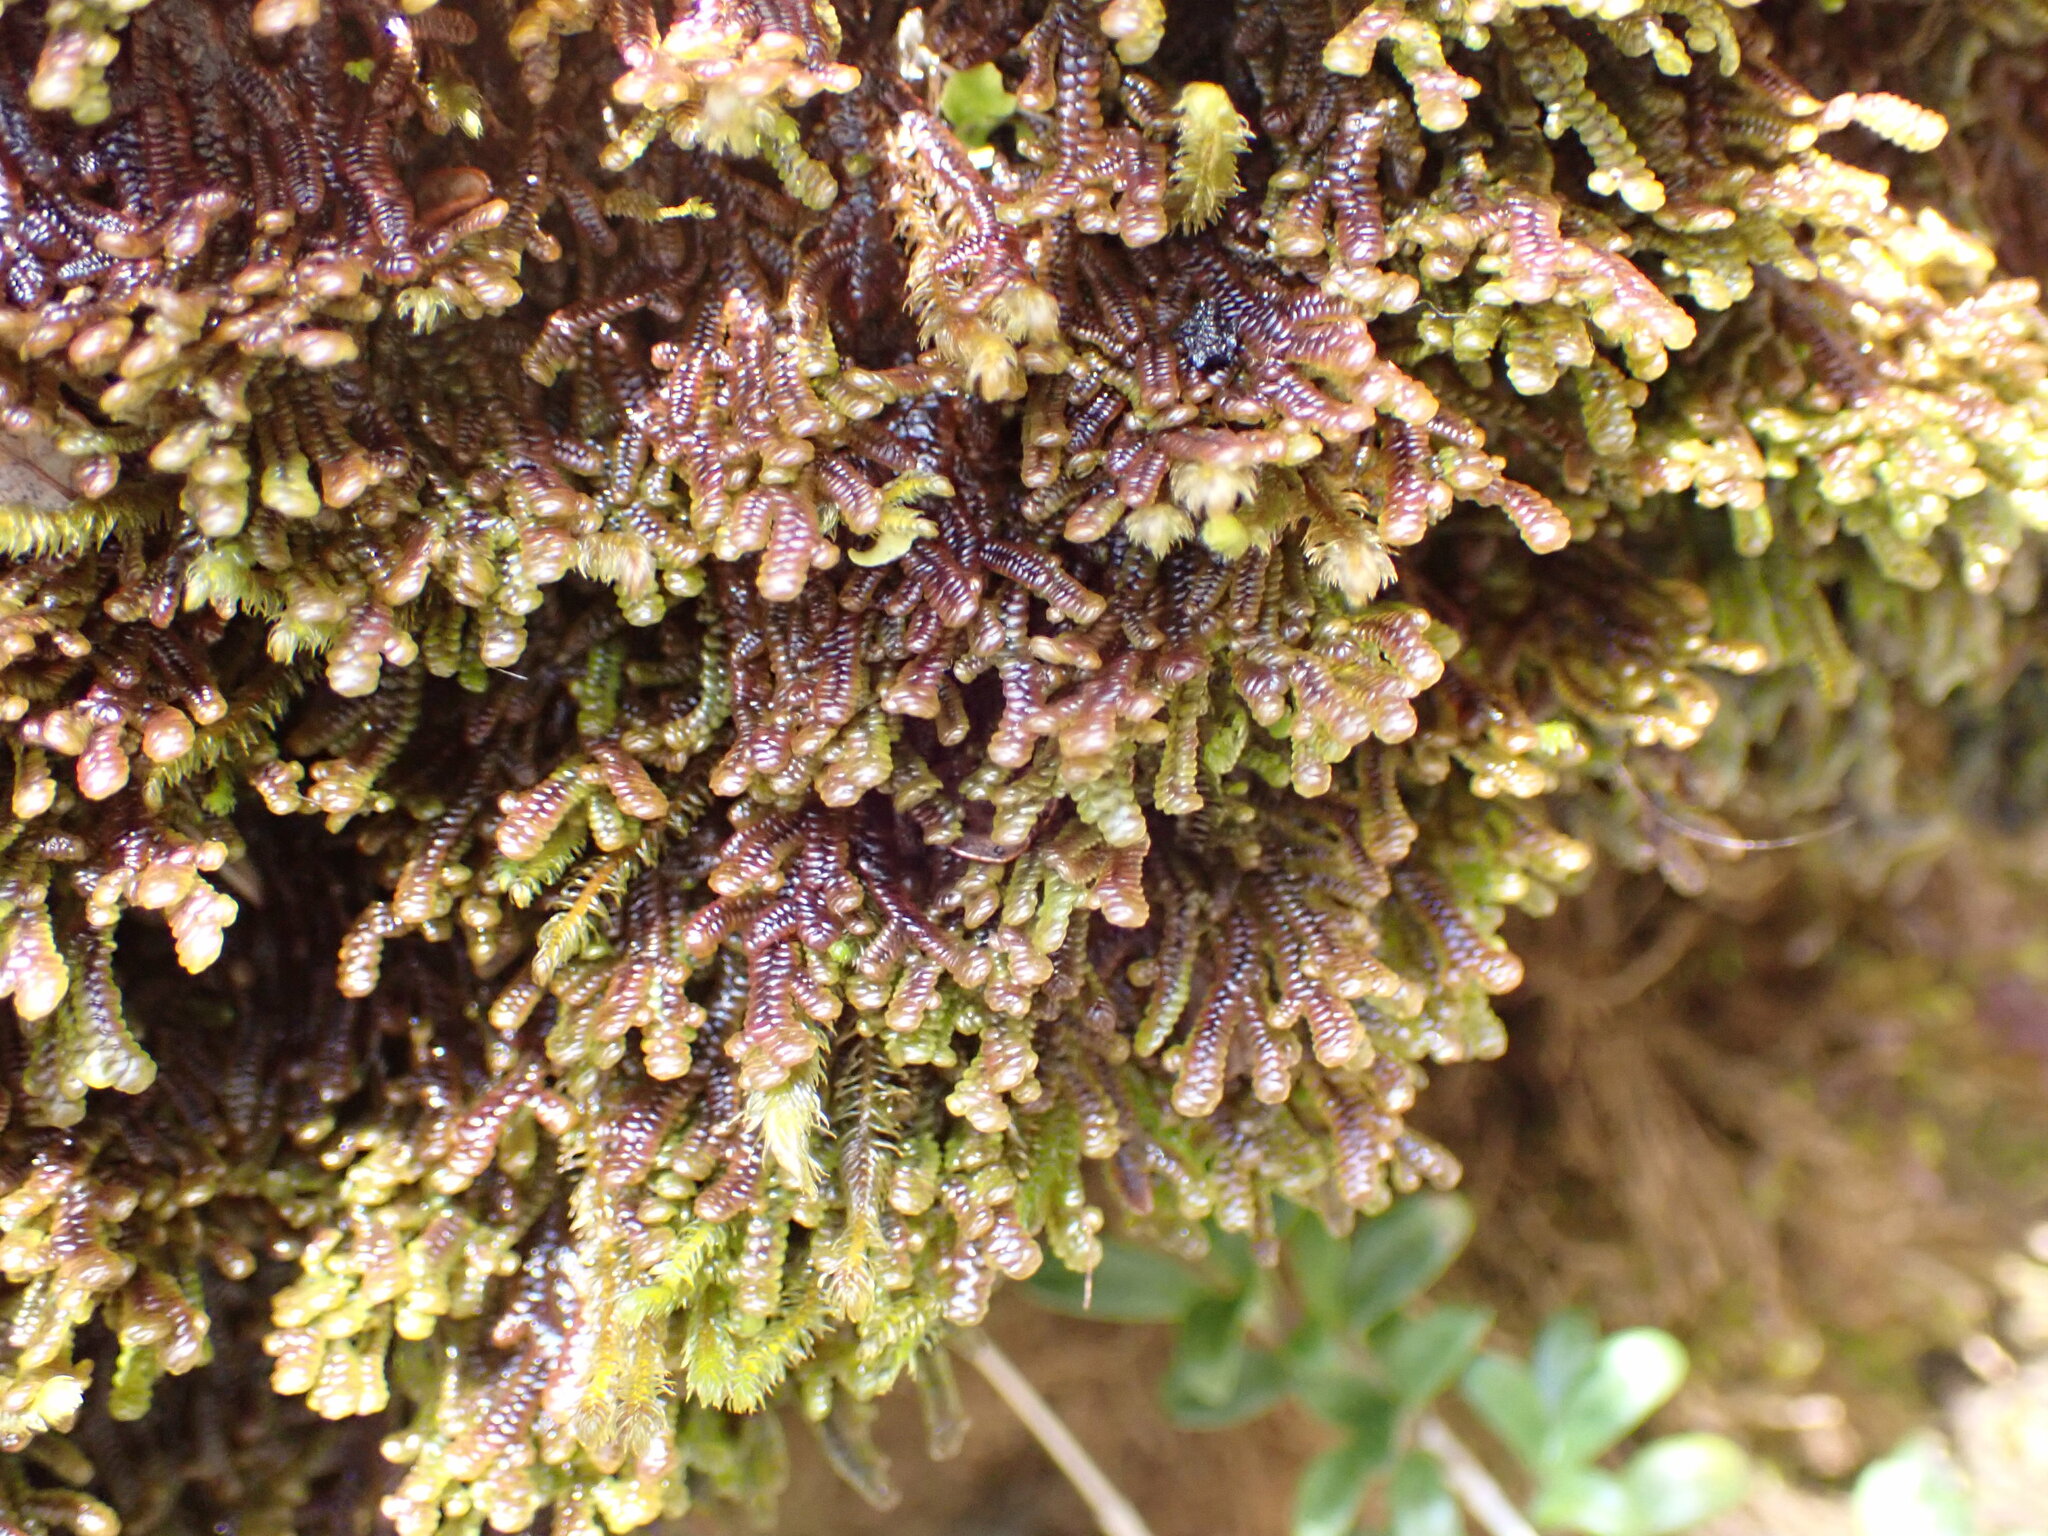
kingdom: Plantae
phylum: Marchantiophyta
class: Jungermanniopsida
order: Porellales
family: Goebeliellaceae
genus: Goebeliella
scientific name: Goebeliella cornigera
